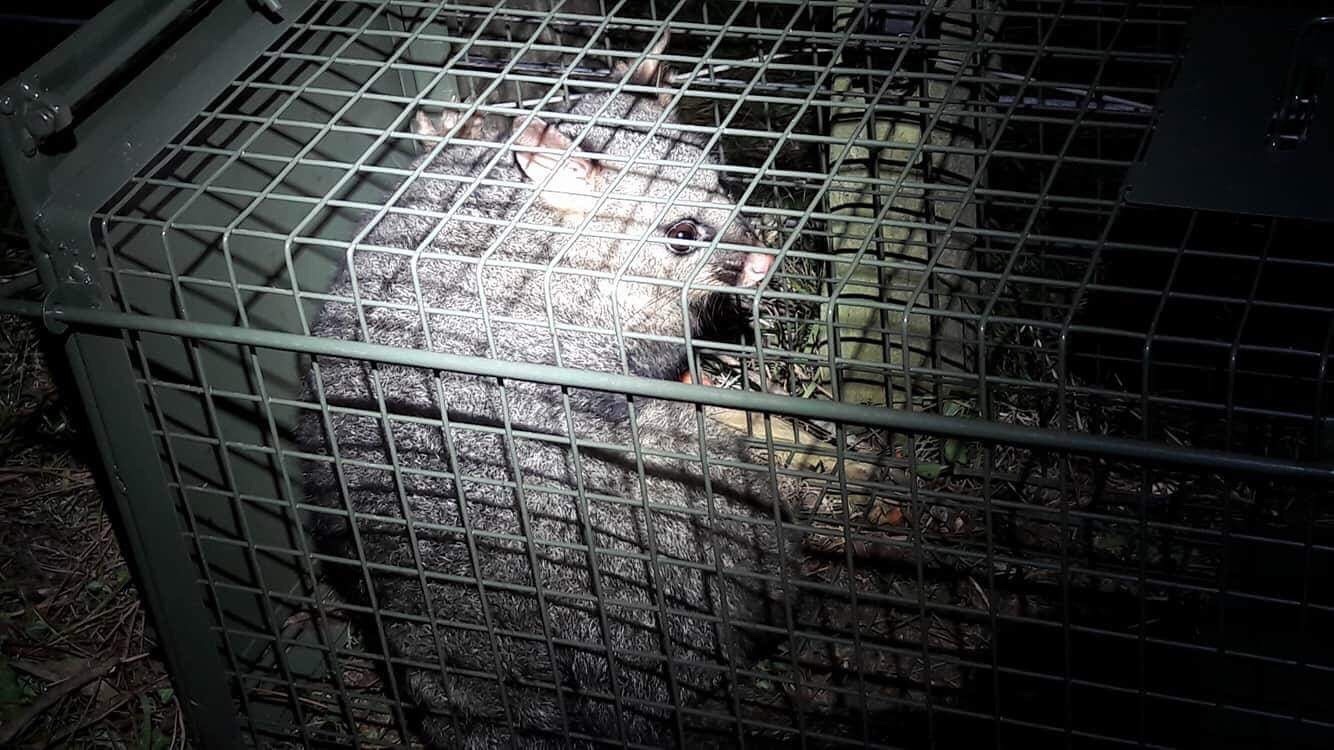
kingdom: Animalia
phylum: Chordata
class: Mammalia
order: Diprotodontia
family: Phalangeridae
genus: Trichosurus
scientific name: Trichosurus vulpecula
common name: Common brushtail
